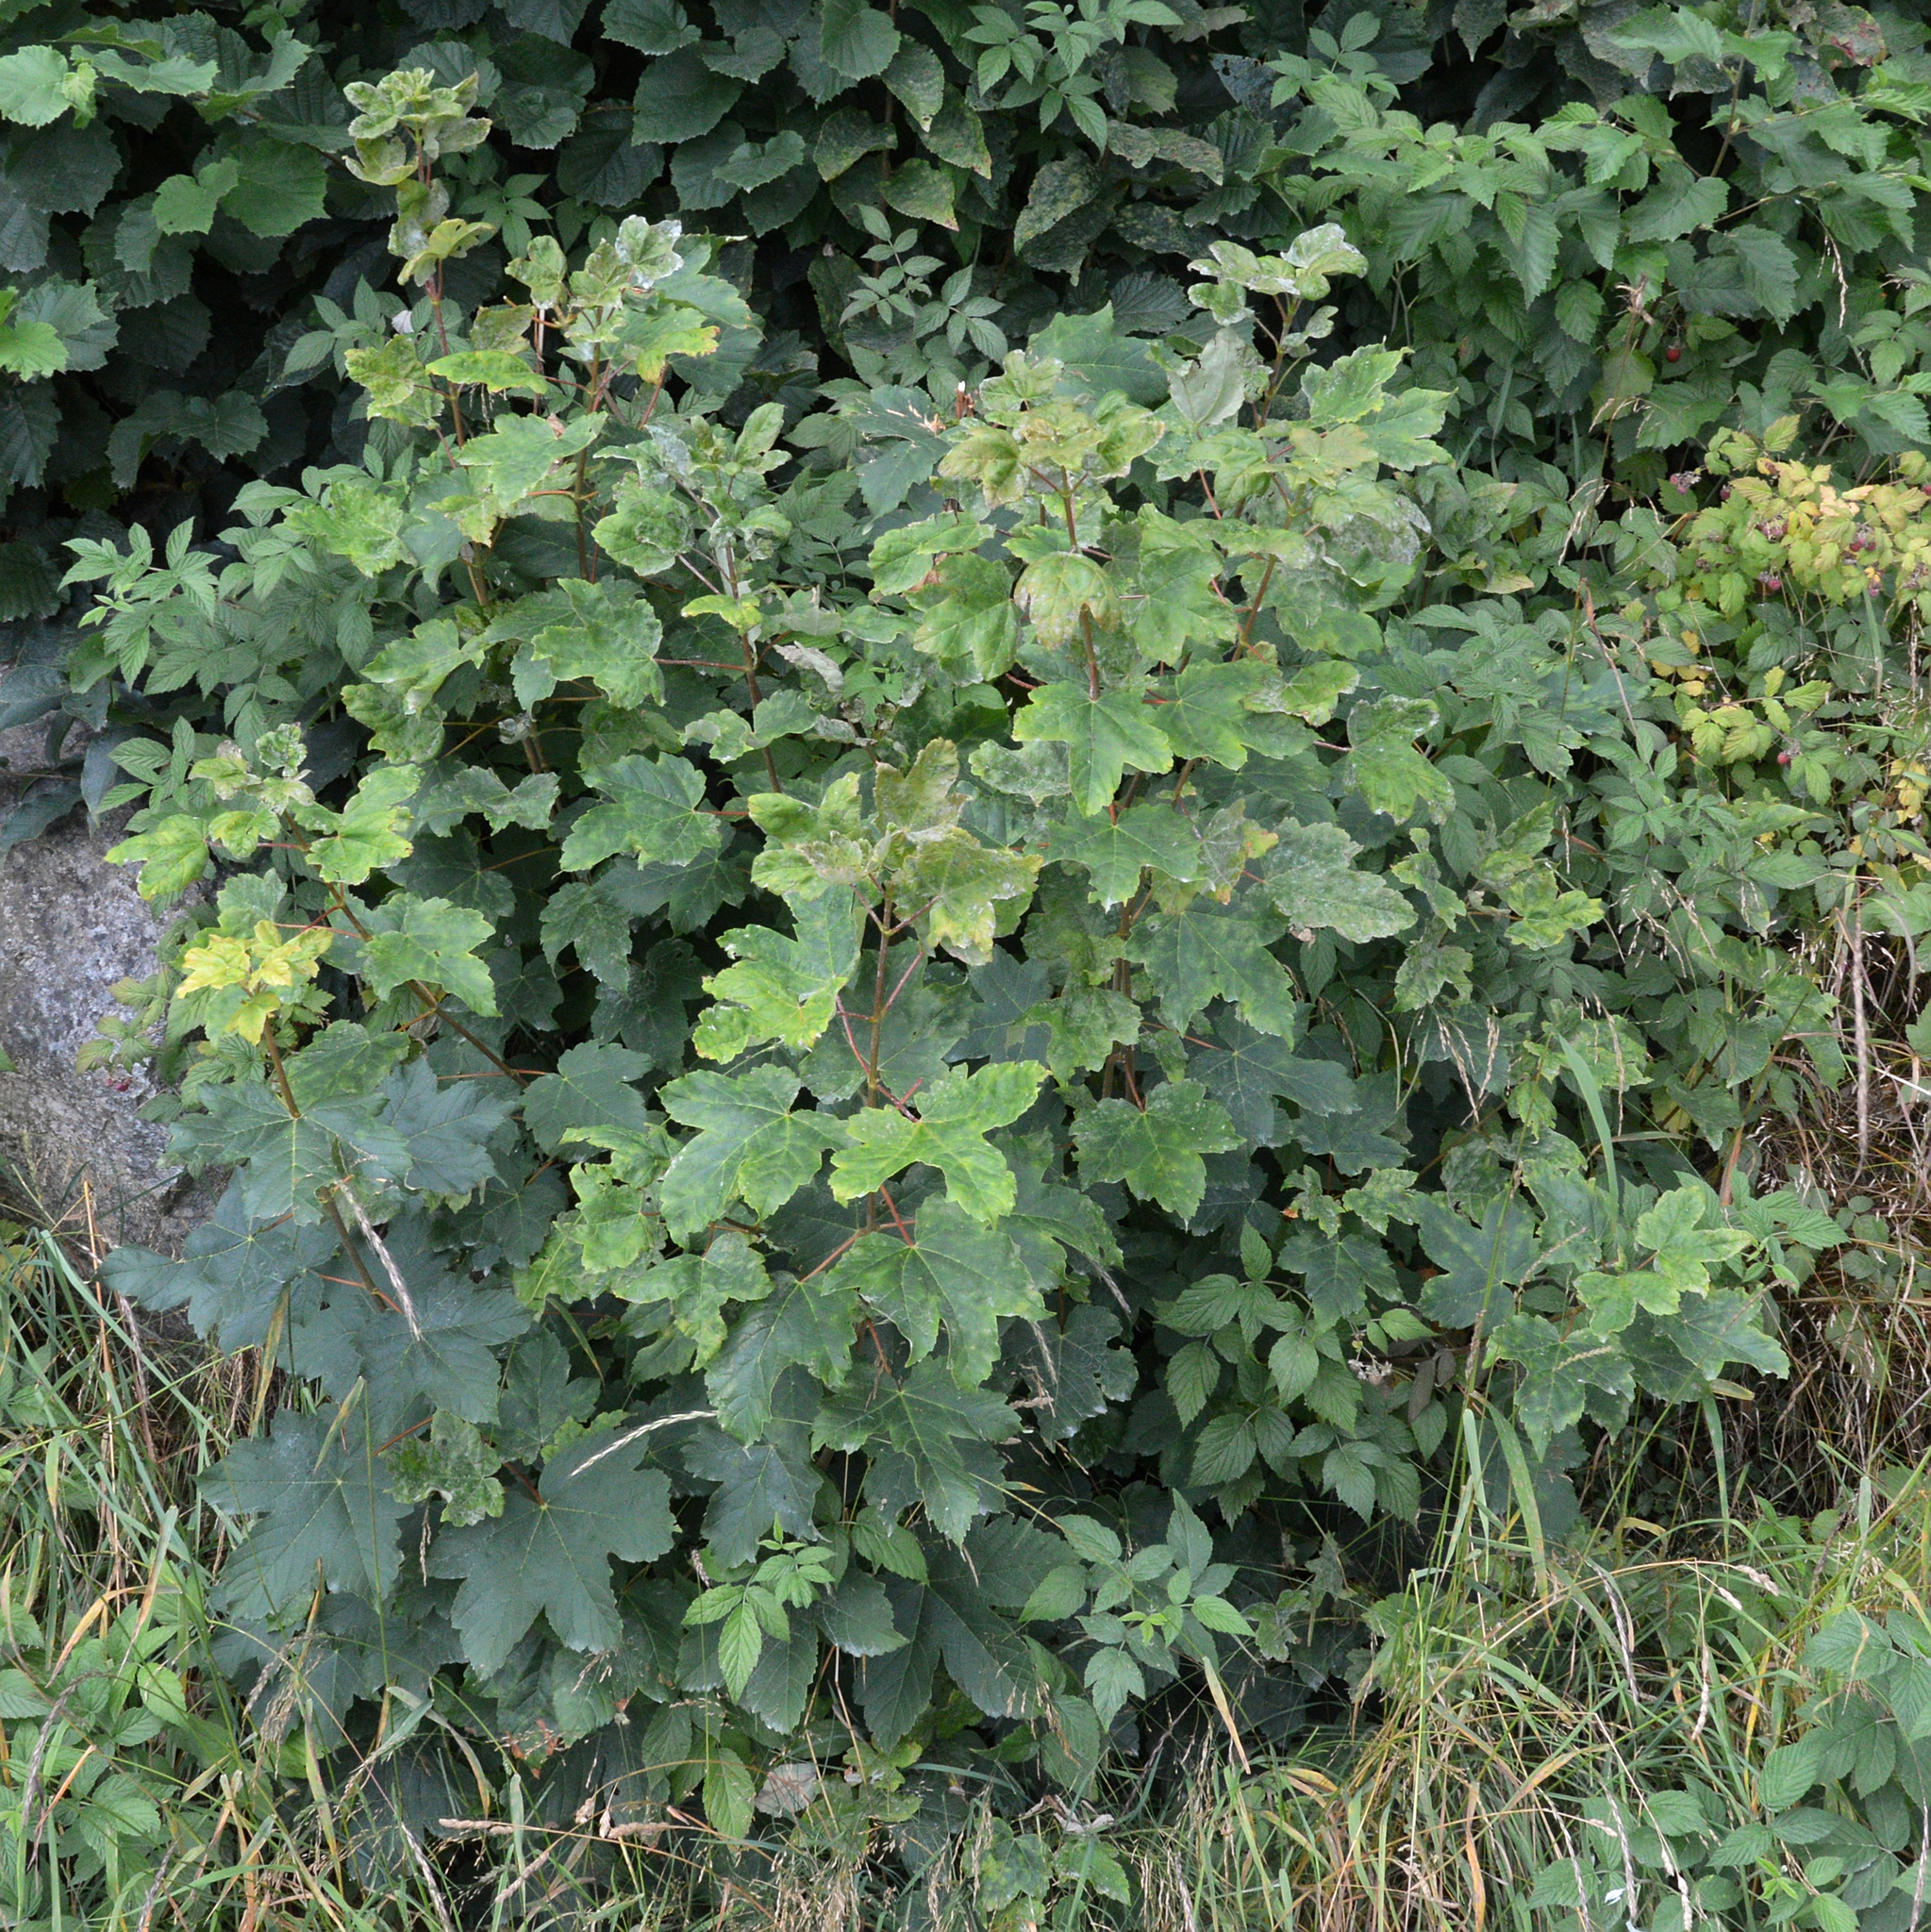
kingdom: Plantae
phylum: Tracheophyta
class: Magnoliopsida
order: Sapindales
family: Sapindaceae
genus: Acer
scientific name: Acer pseudoplatanus
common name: Sycamore
